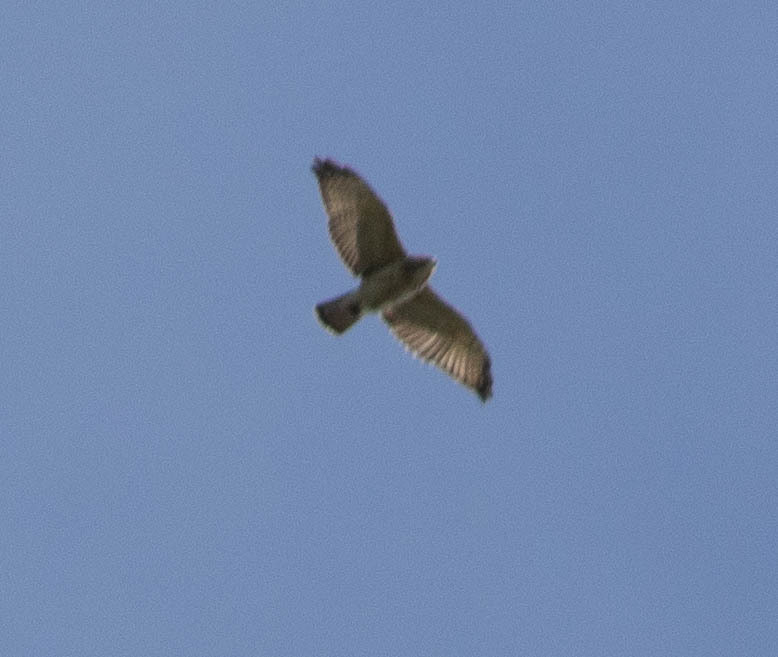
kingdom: Animalia
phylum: Chordata
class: Aves
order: Accipitriformes
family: Accipitridae
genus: Buteo
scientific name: Buteo platypterus
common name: Broad-winged hawk
